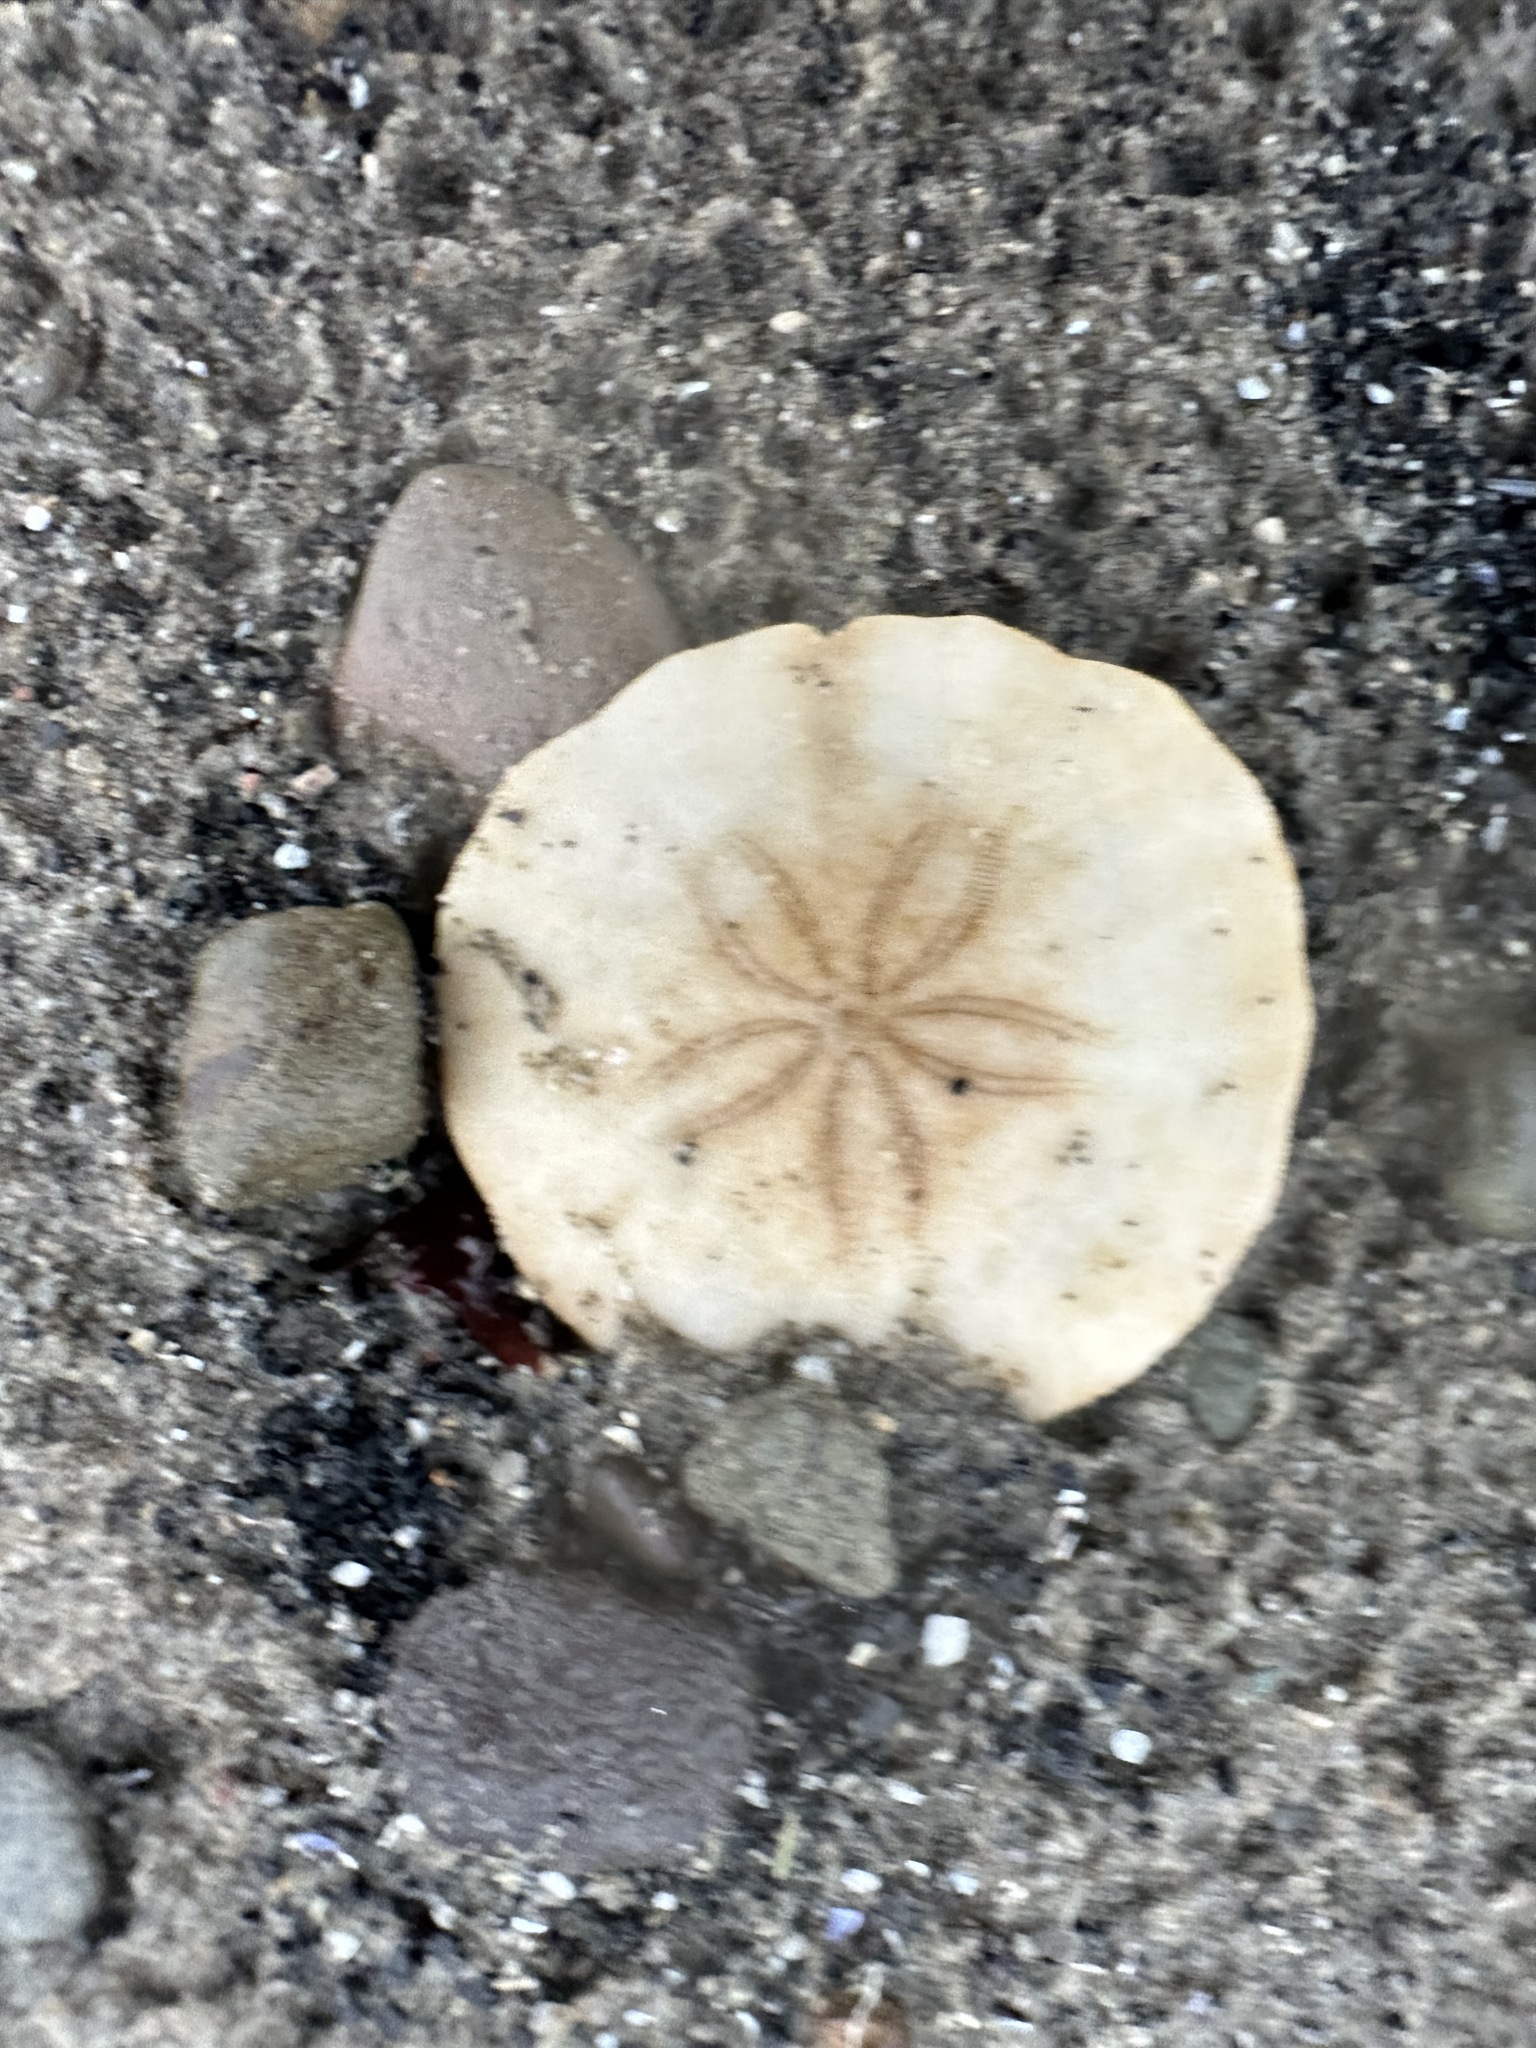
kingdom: Animalia
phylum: Echinodermata
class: Echinoidea
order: Echinolampadacea
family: Echinarachniidae
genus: Echinarachnius
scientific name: Echinarachnius parma
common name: Common sand dollar
